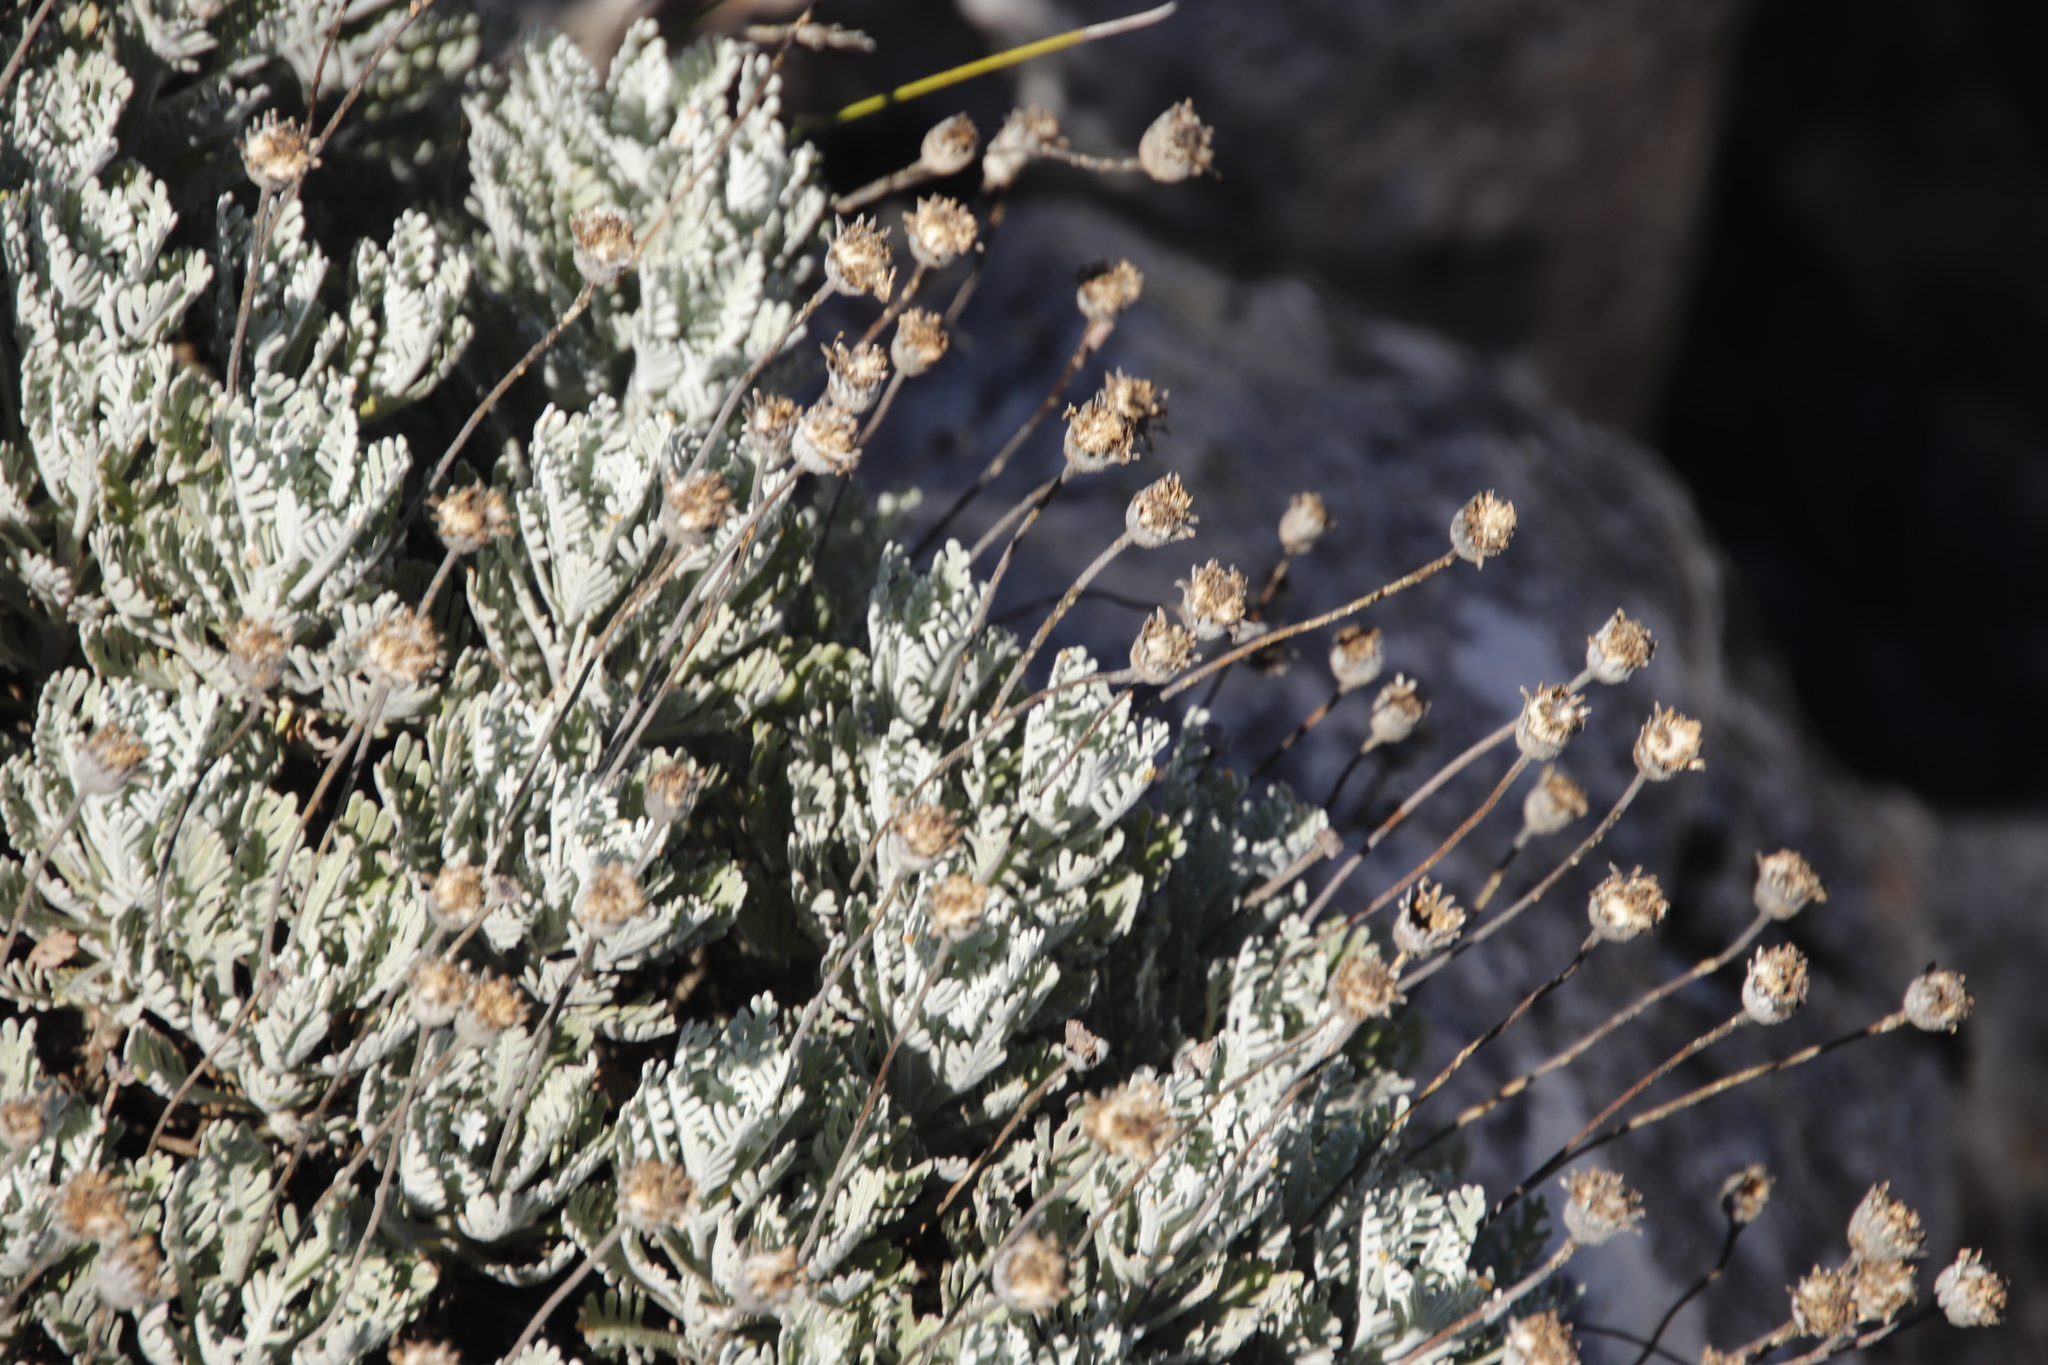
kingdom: Plantae
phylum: Tracheophyta
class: Magnoliopsida
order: Asterales
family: Asteraceae
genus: Euryops
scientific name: Euryops pectinatus
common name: Gray-leaf euryops
